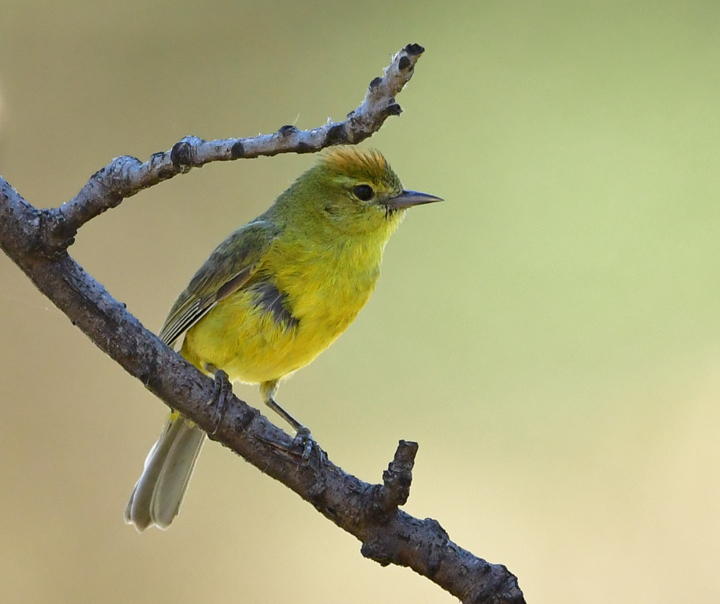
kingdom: Animalia
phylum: Chordata
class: Aves
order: Passeriformes
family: Parulidae
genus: Leiothlypis
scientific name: Leiothlypis celata
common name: Orange-crowned warbler
